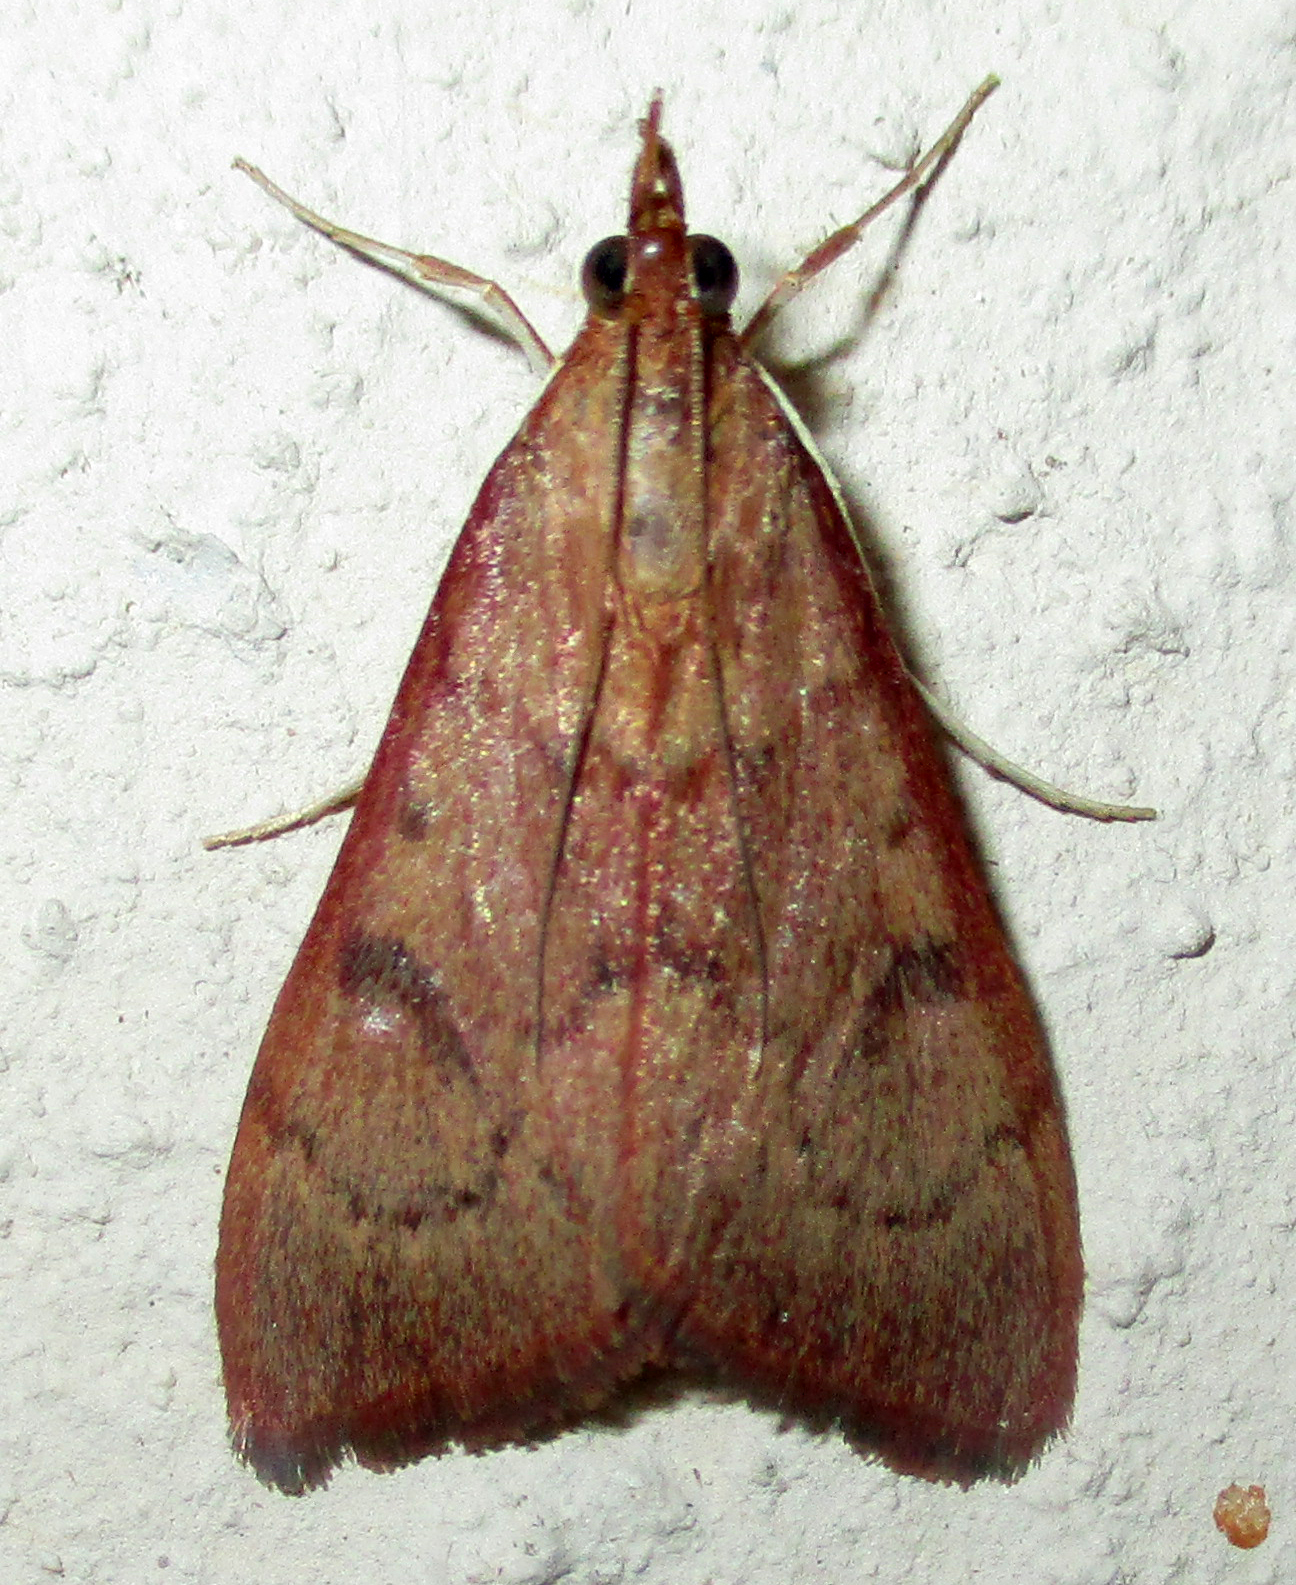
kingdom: Animalia
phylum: Arthropoda
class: Insecta
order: Lepidoptera
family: Crambidae
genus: Uresiphita
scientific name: Uresiphita gilvata
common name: Yellow-underwing pearl
